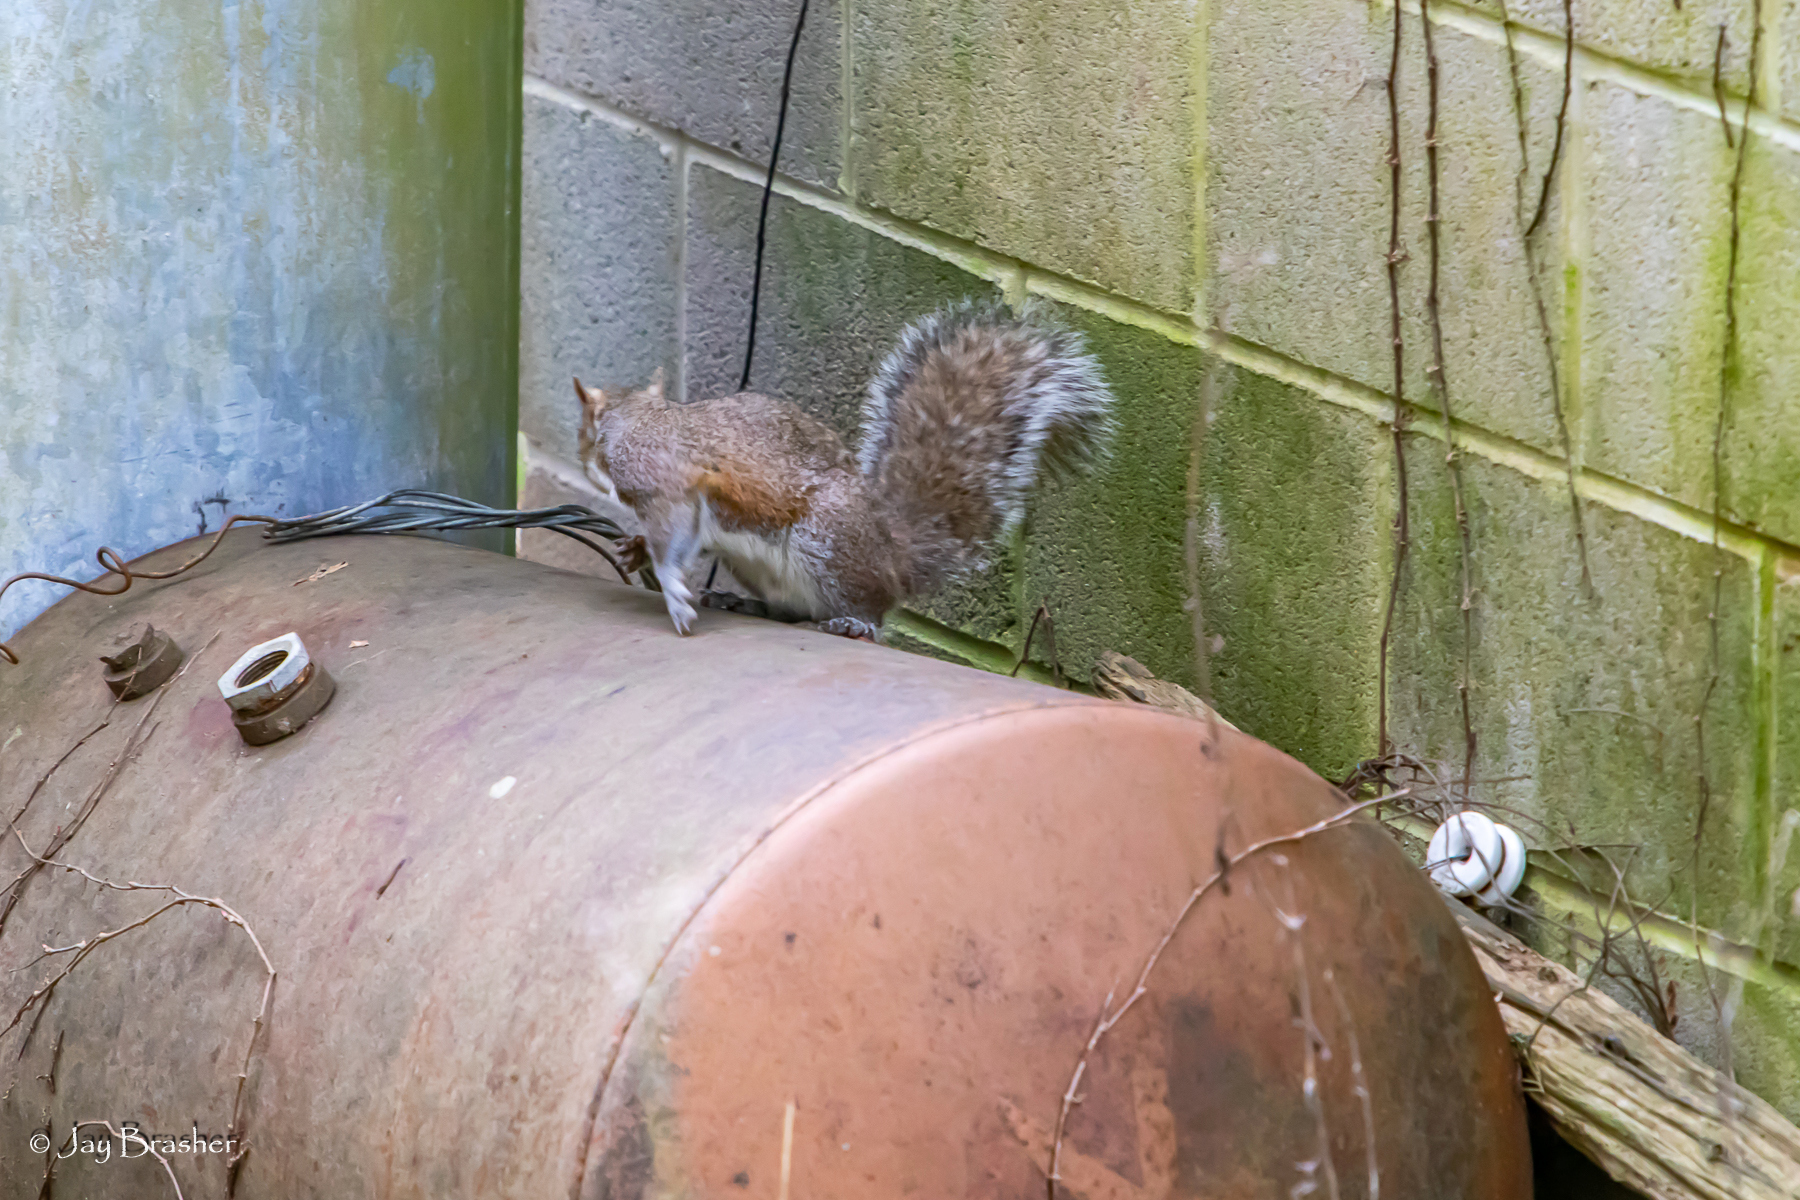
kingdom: Animalia
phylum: Chordata
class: Mammalia
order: Rodentia
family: Sciuridae
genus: Sciurus
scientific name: Sciurus carolinensis
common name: Eastern gray squirrel
